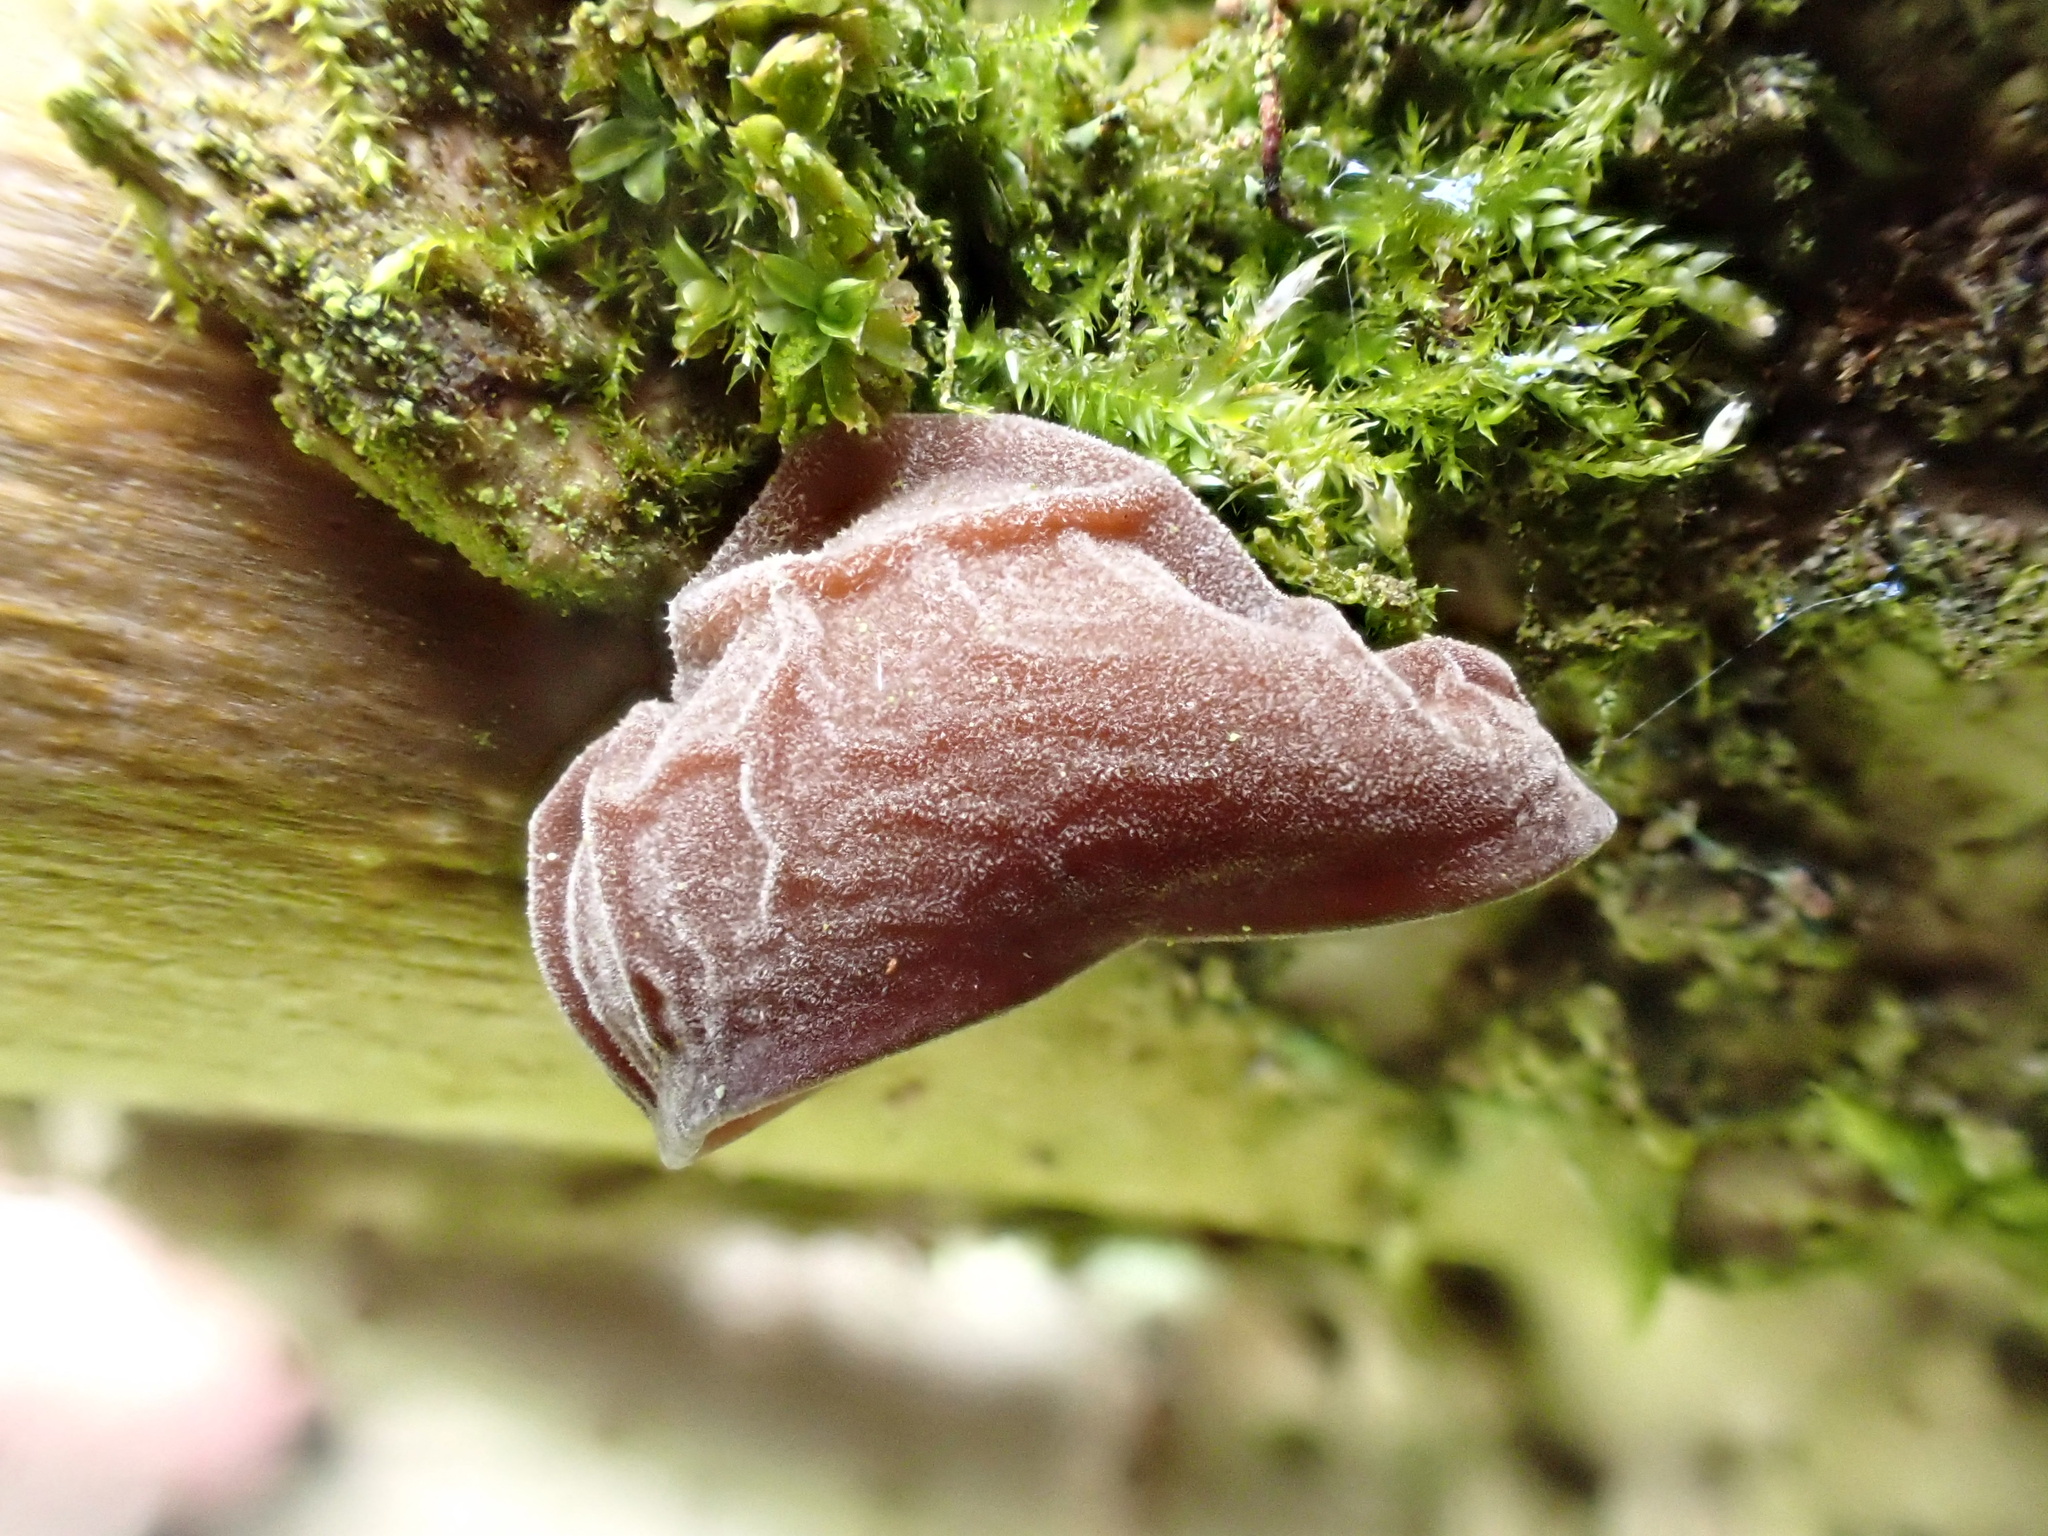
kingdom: Fungi
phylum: Basidiomycota
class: Agaricomycetes
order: Auriculariales
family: Auriculariaceae
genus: Auricularia
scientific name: Auricularia auricula-judae
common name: Jelly ear
